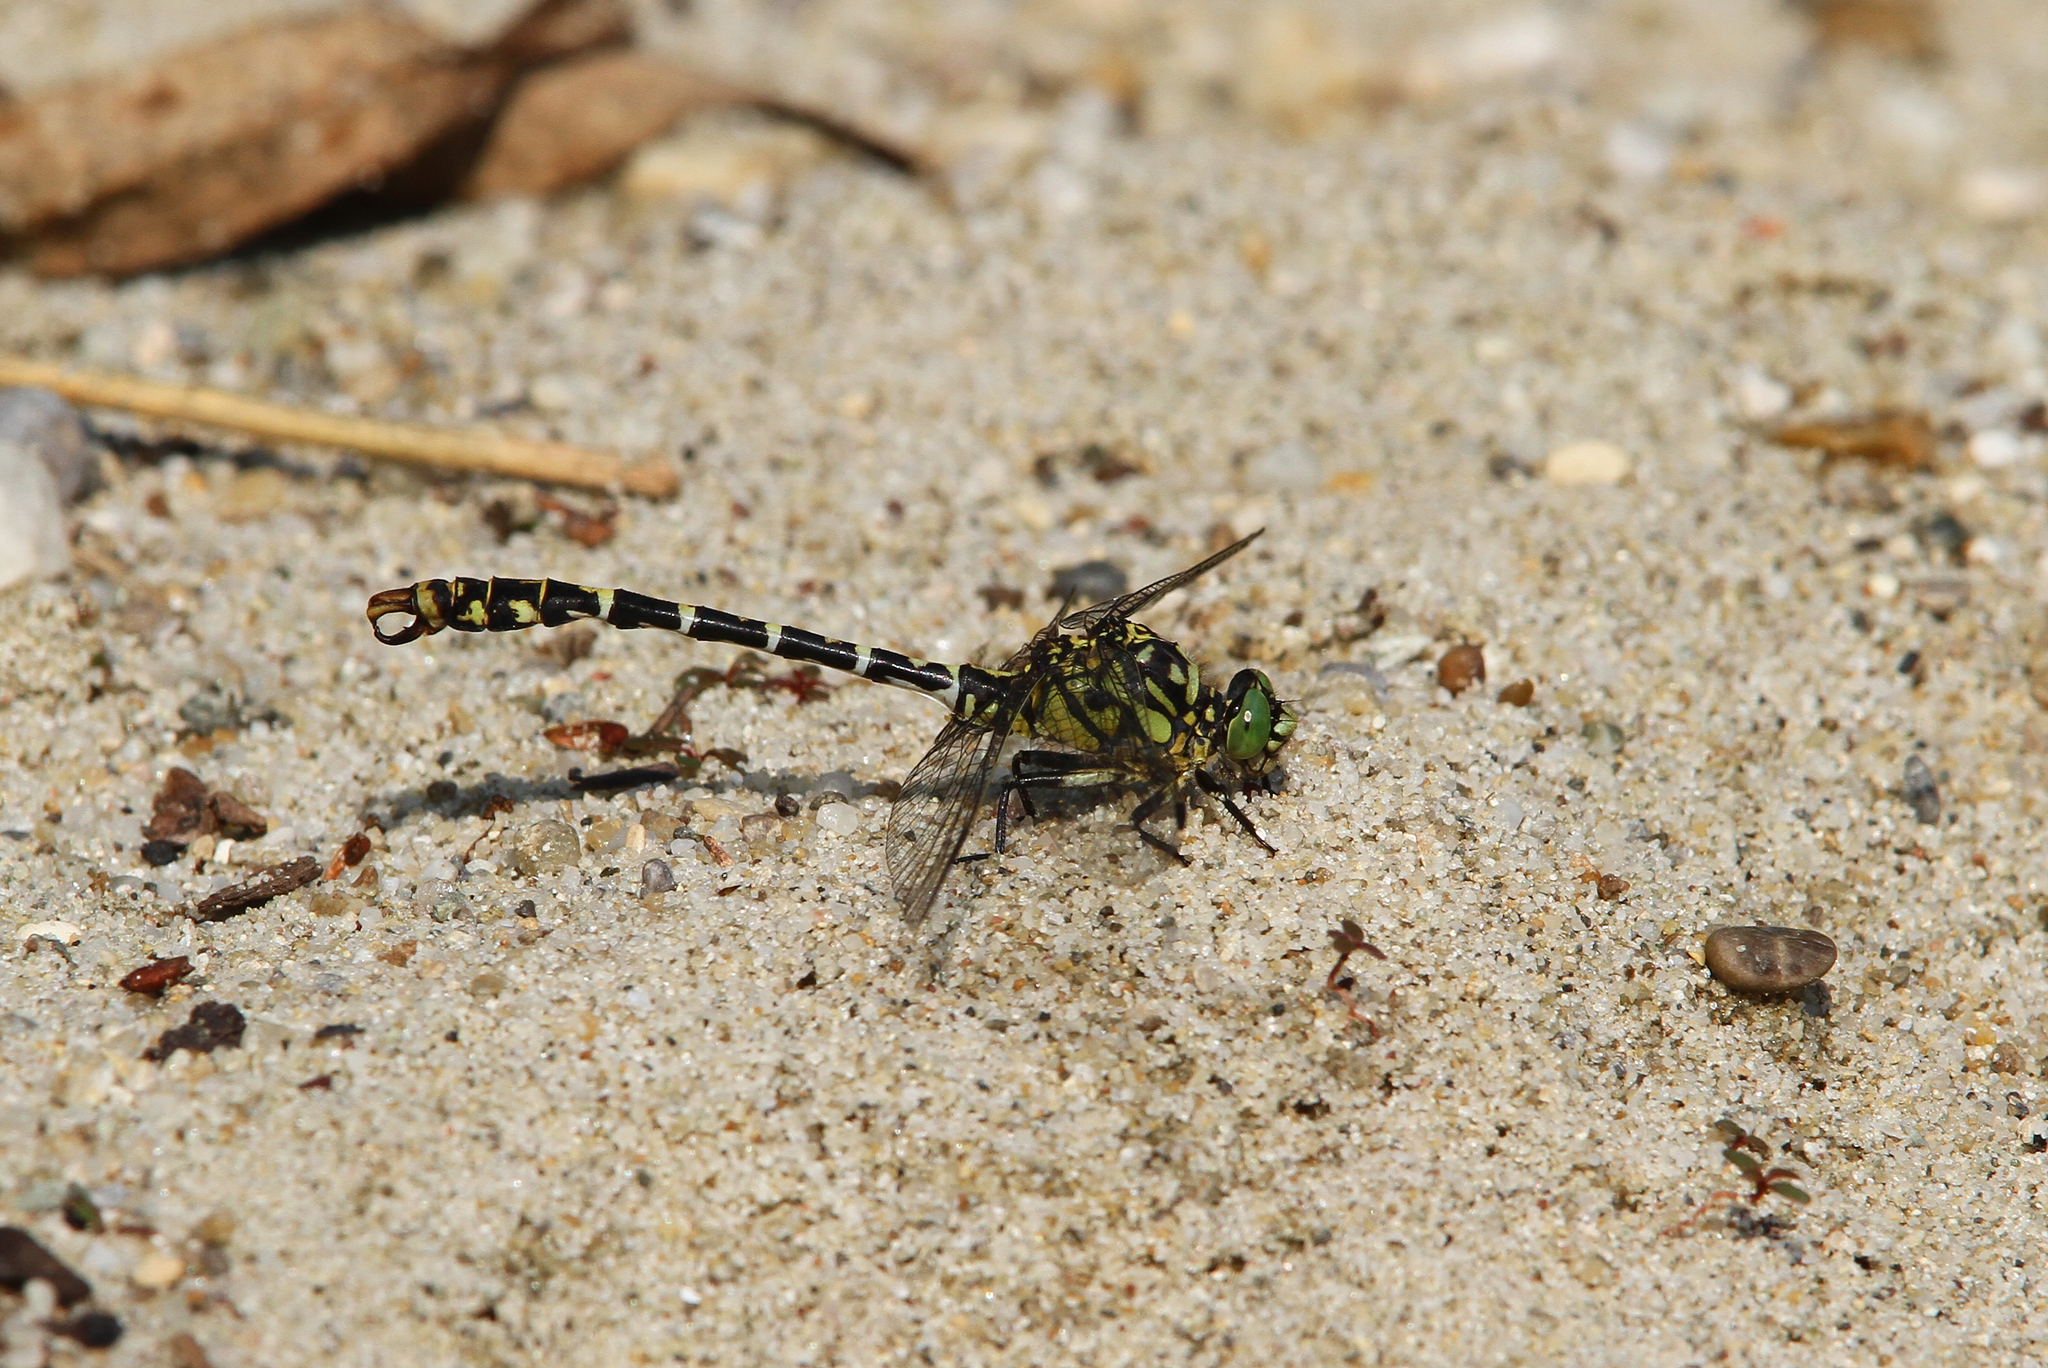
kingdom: Animalia
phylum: Arthropoda
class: Insecta
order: Odonata
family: Gomphidae
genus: Onychogomphus
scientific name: Onychogomphus forcipatus
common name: Small pincertail
